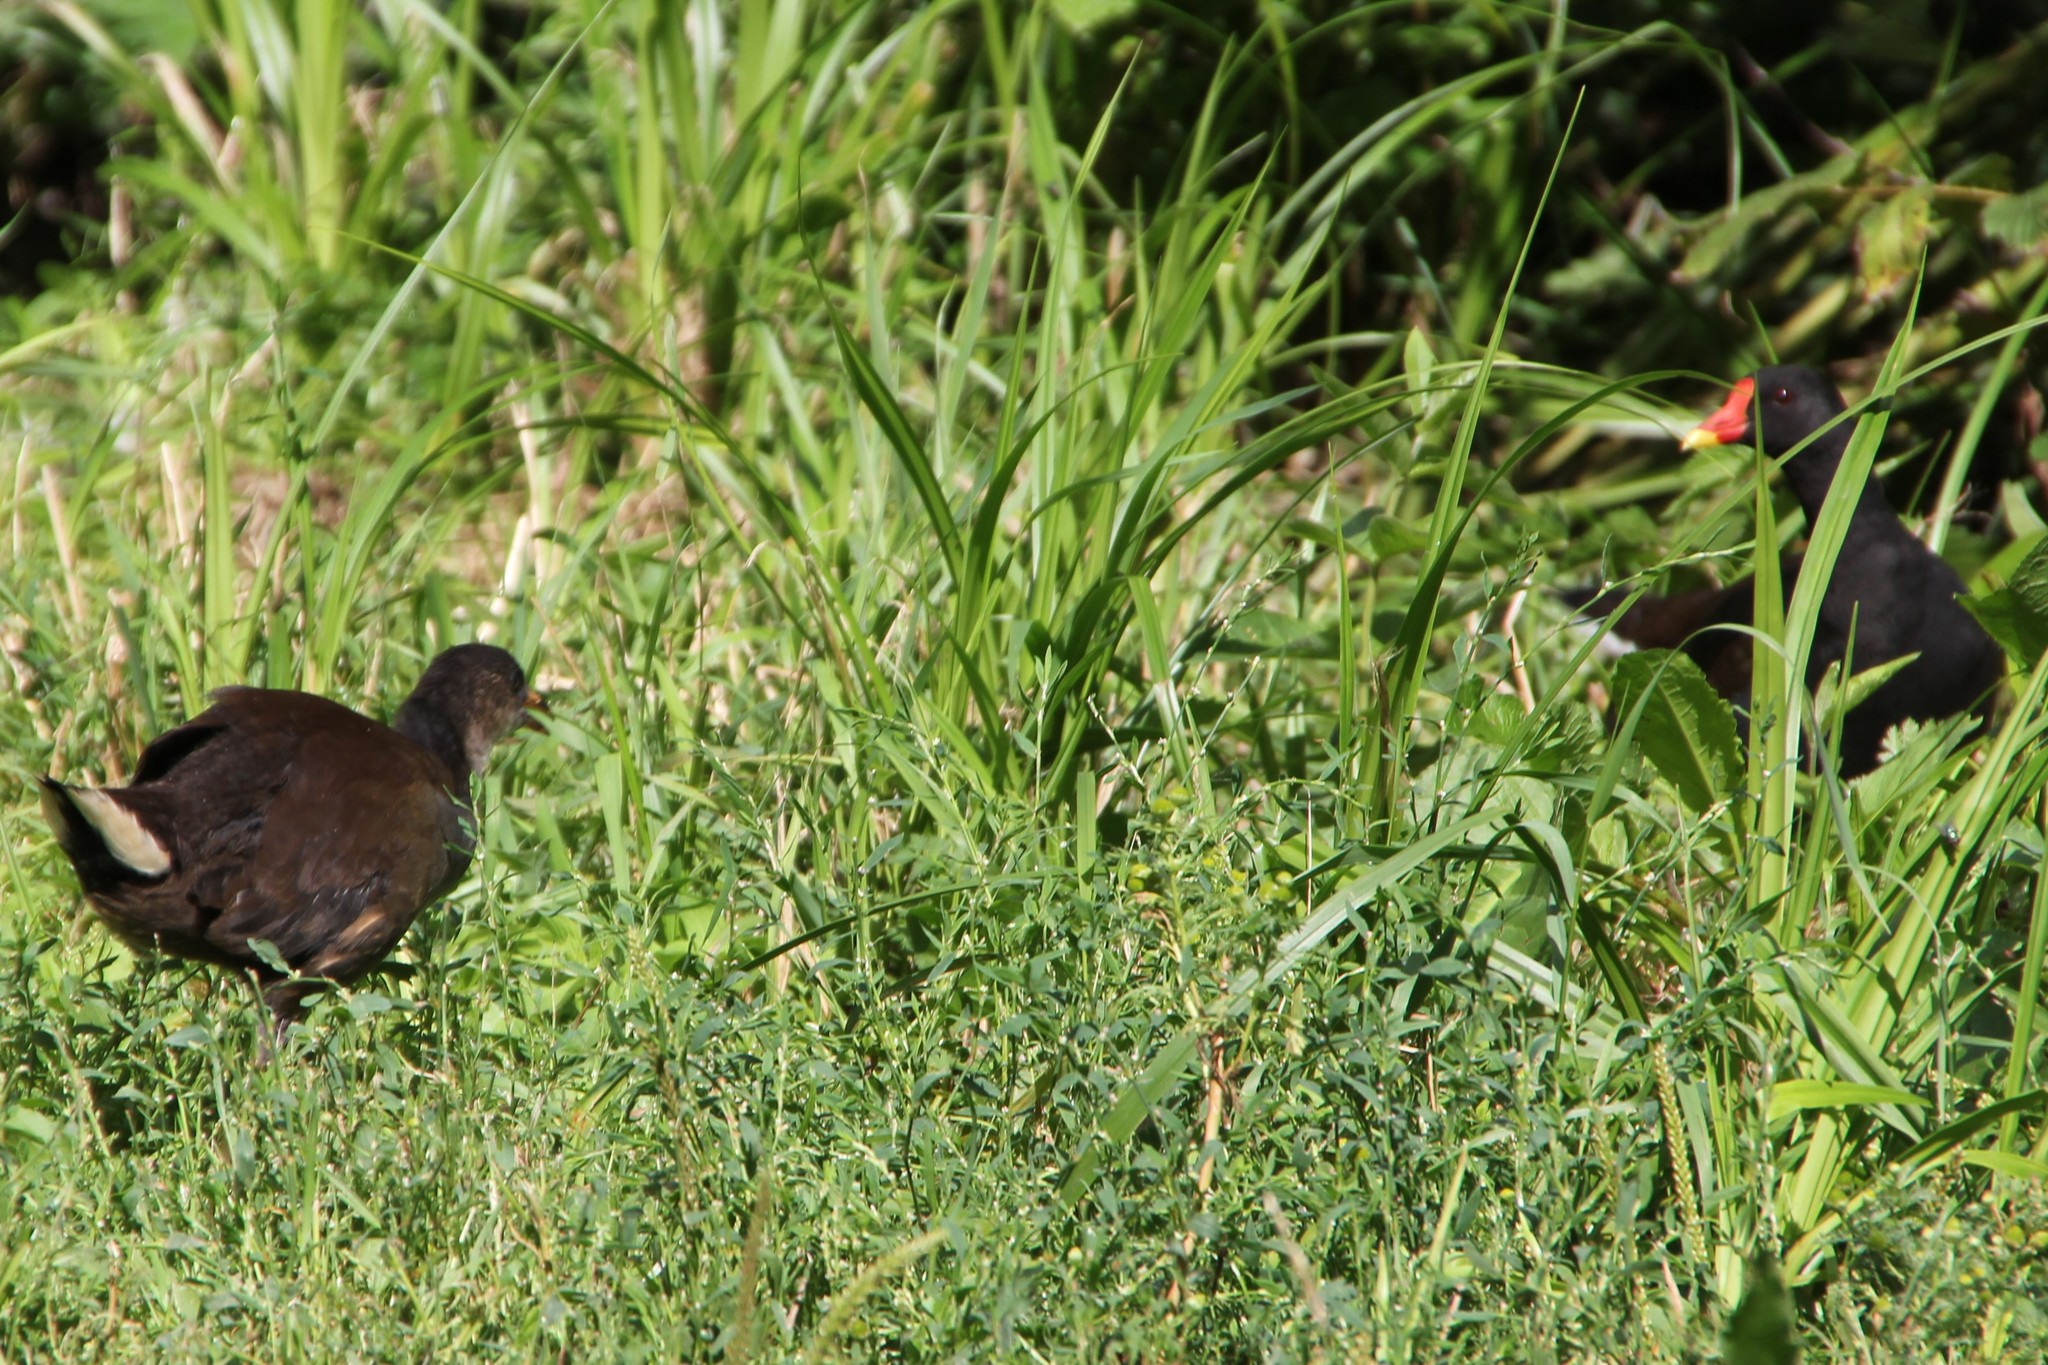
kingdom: Animalia
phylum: Chordata
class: Aves
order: Gruiformes
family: Rallidae
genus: Gallinula
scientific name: Gallinula chloropus
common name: Common moorhen
